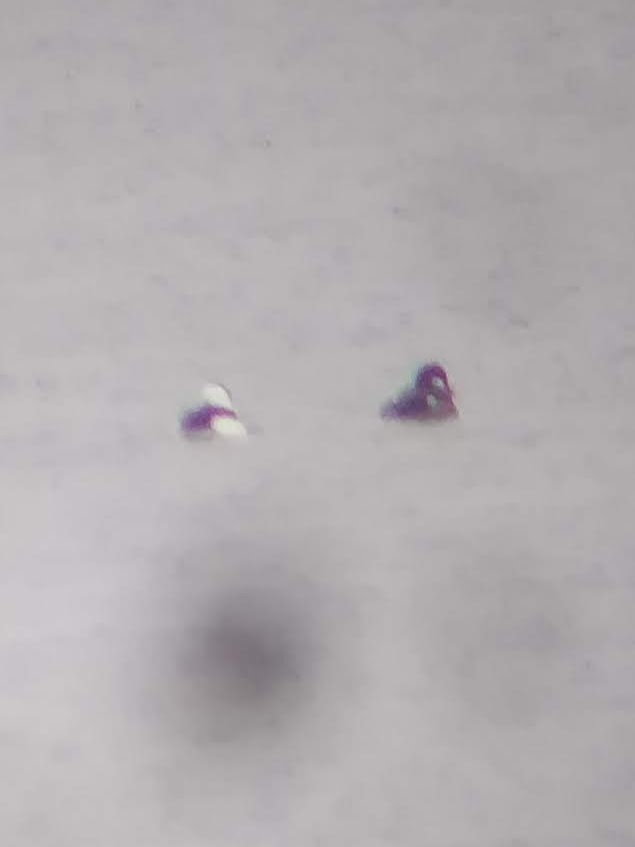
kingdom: Animalia
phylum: Chordata
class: Aves
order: Anseriformes
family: Anatidae
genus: Bucephala
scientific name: Bucephala albeola
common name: Bufflehead
